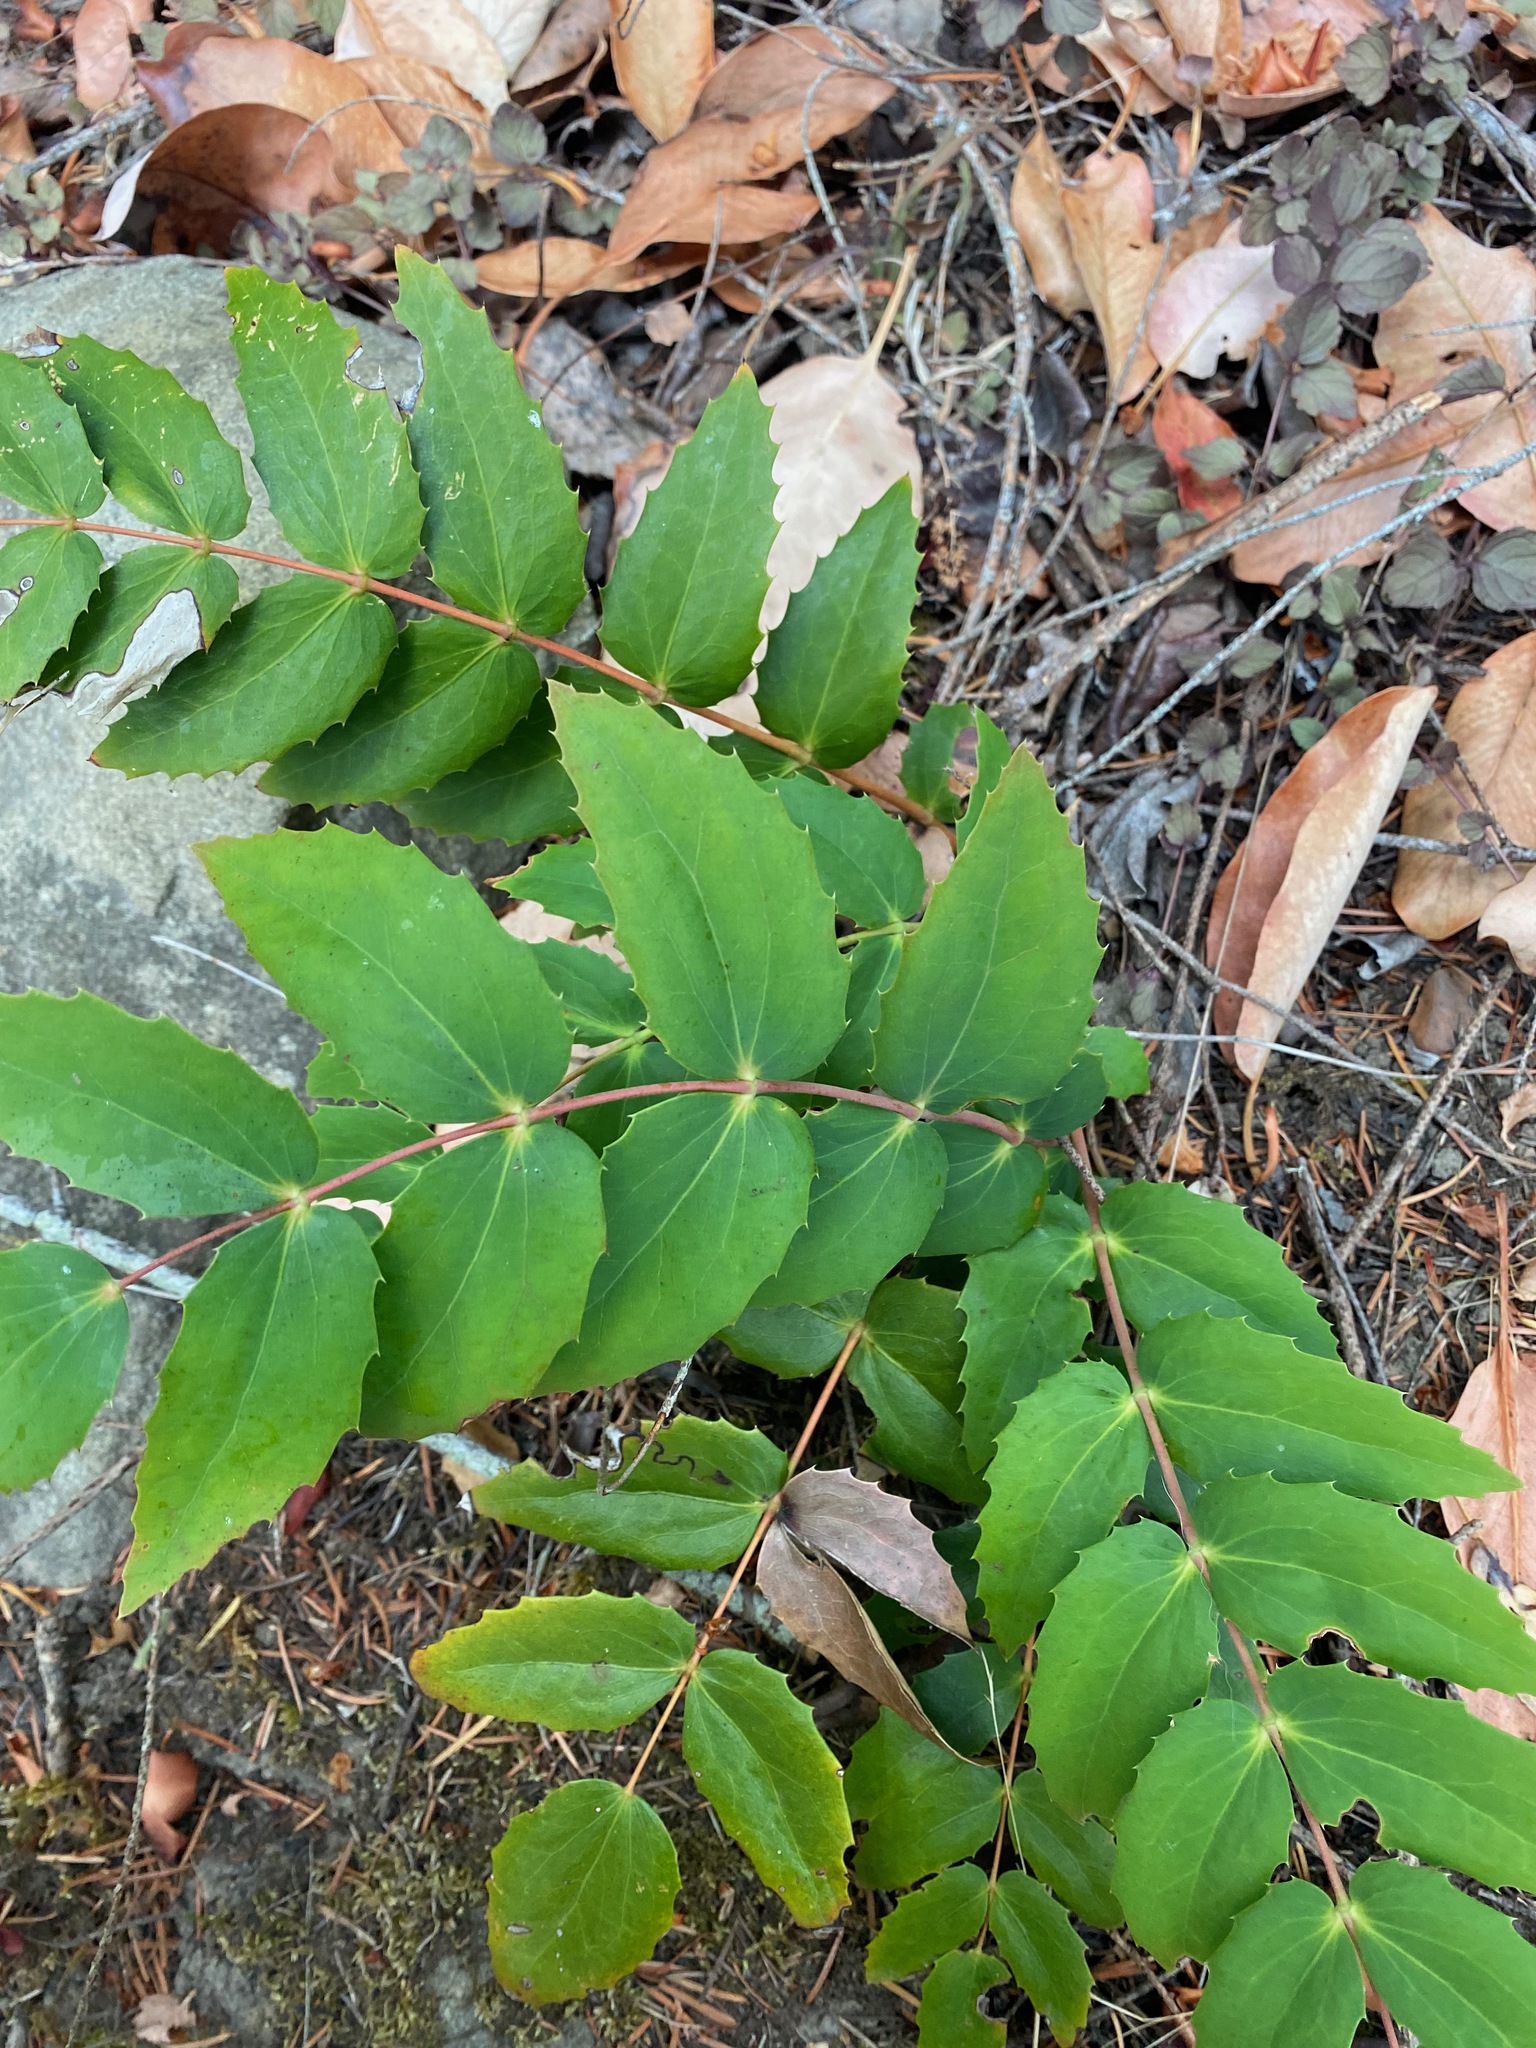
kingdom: Plantae
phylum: Tracheophyta
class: Magnoliopsida
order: Ranunculales
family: Berberidaceae
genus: Mahonia
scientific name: Mahonia nervosa
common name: Cascade oregon-grape
